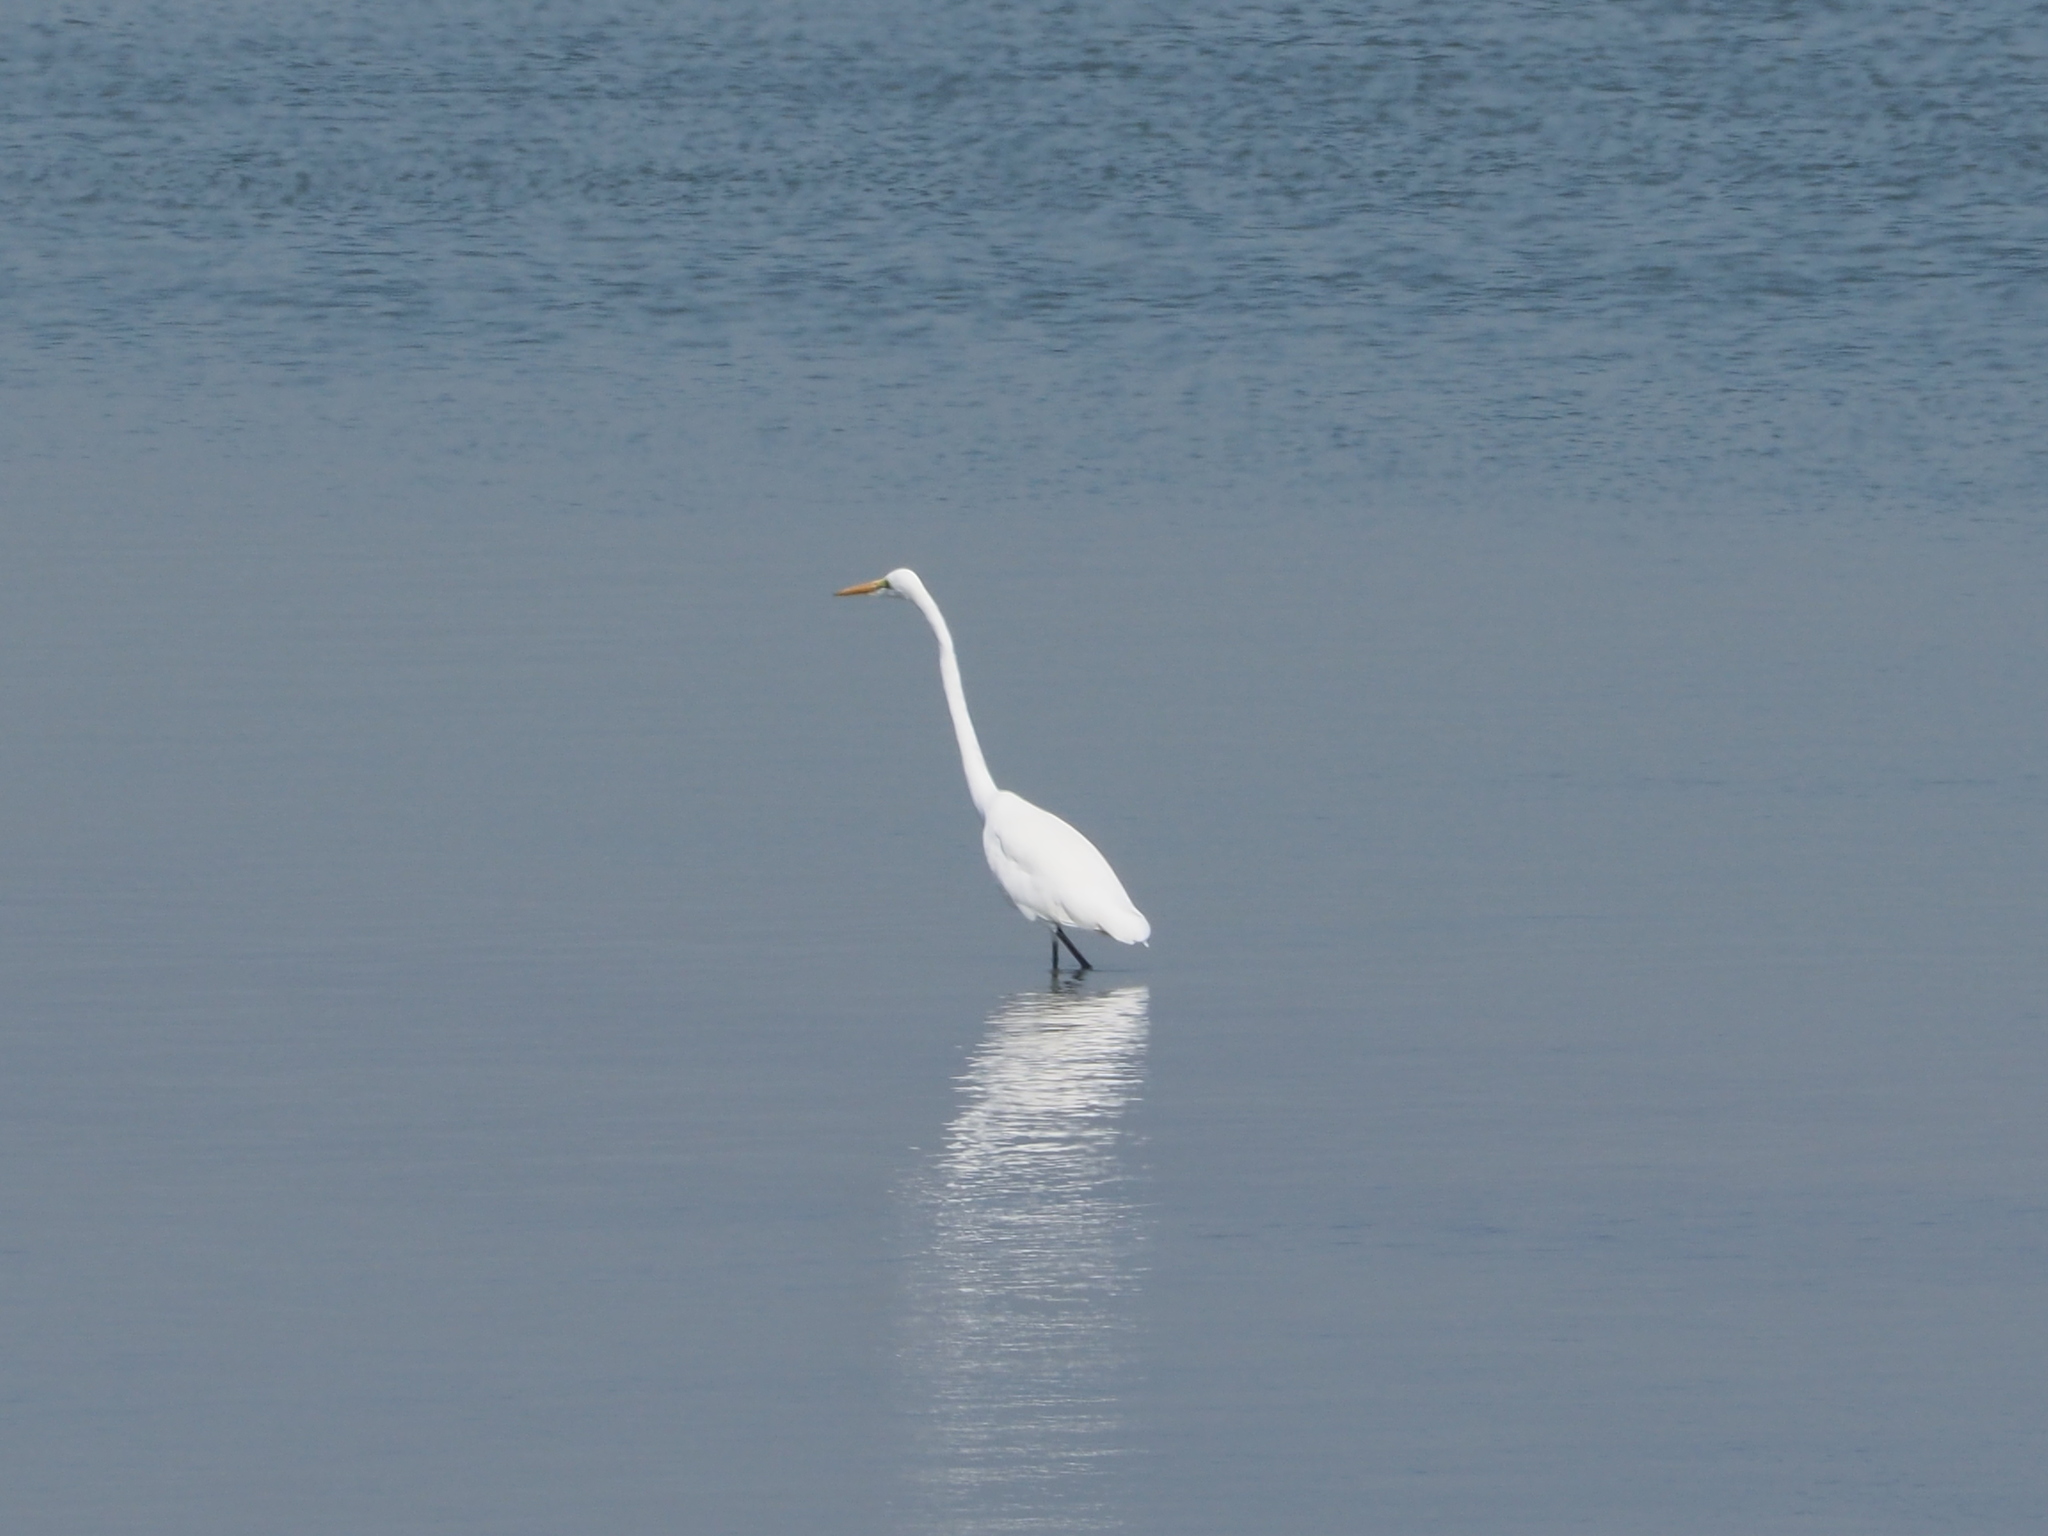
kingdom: Animalia
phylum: Chordata
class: Aves
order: Pelecaniformes
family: Ardeidae
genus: Ardea
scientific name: Ardea alba
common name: Great egret
